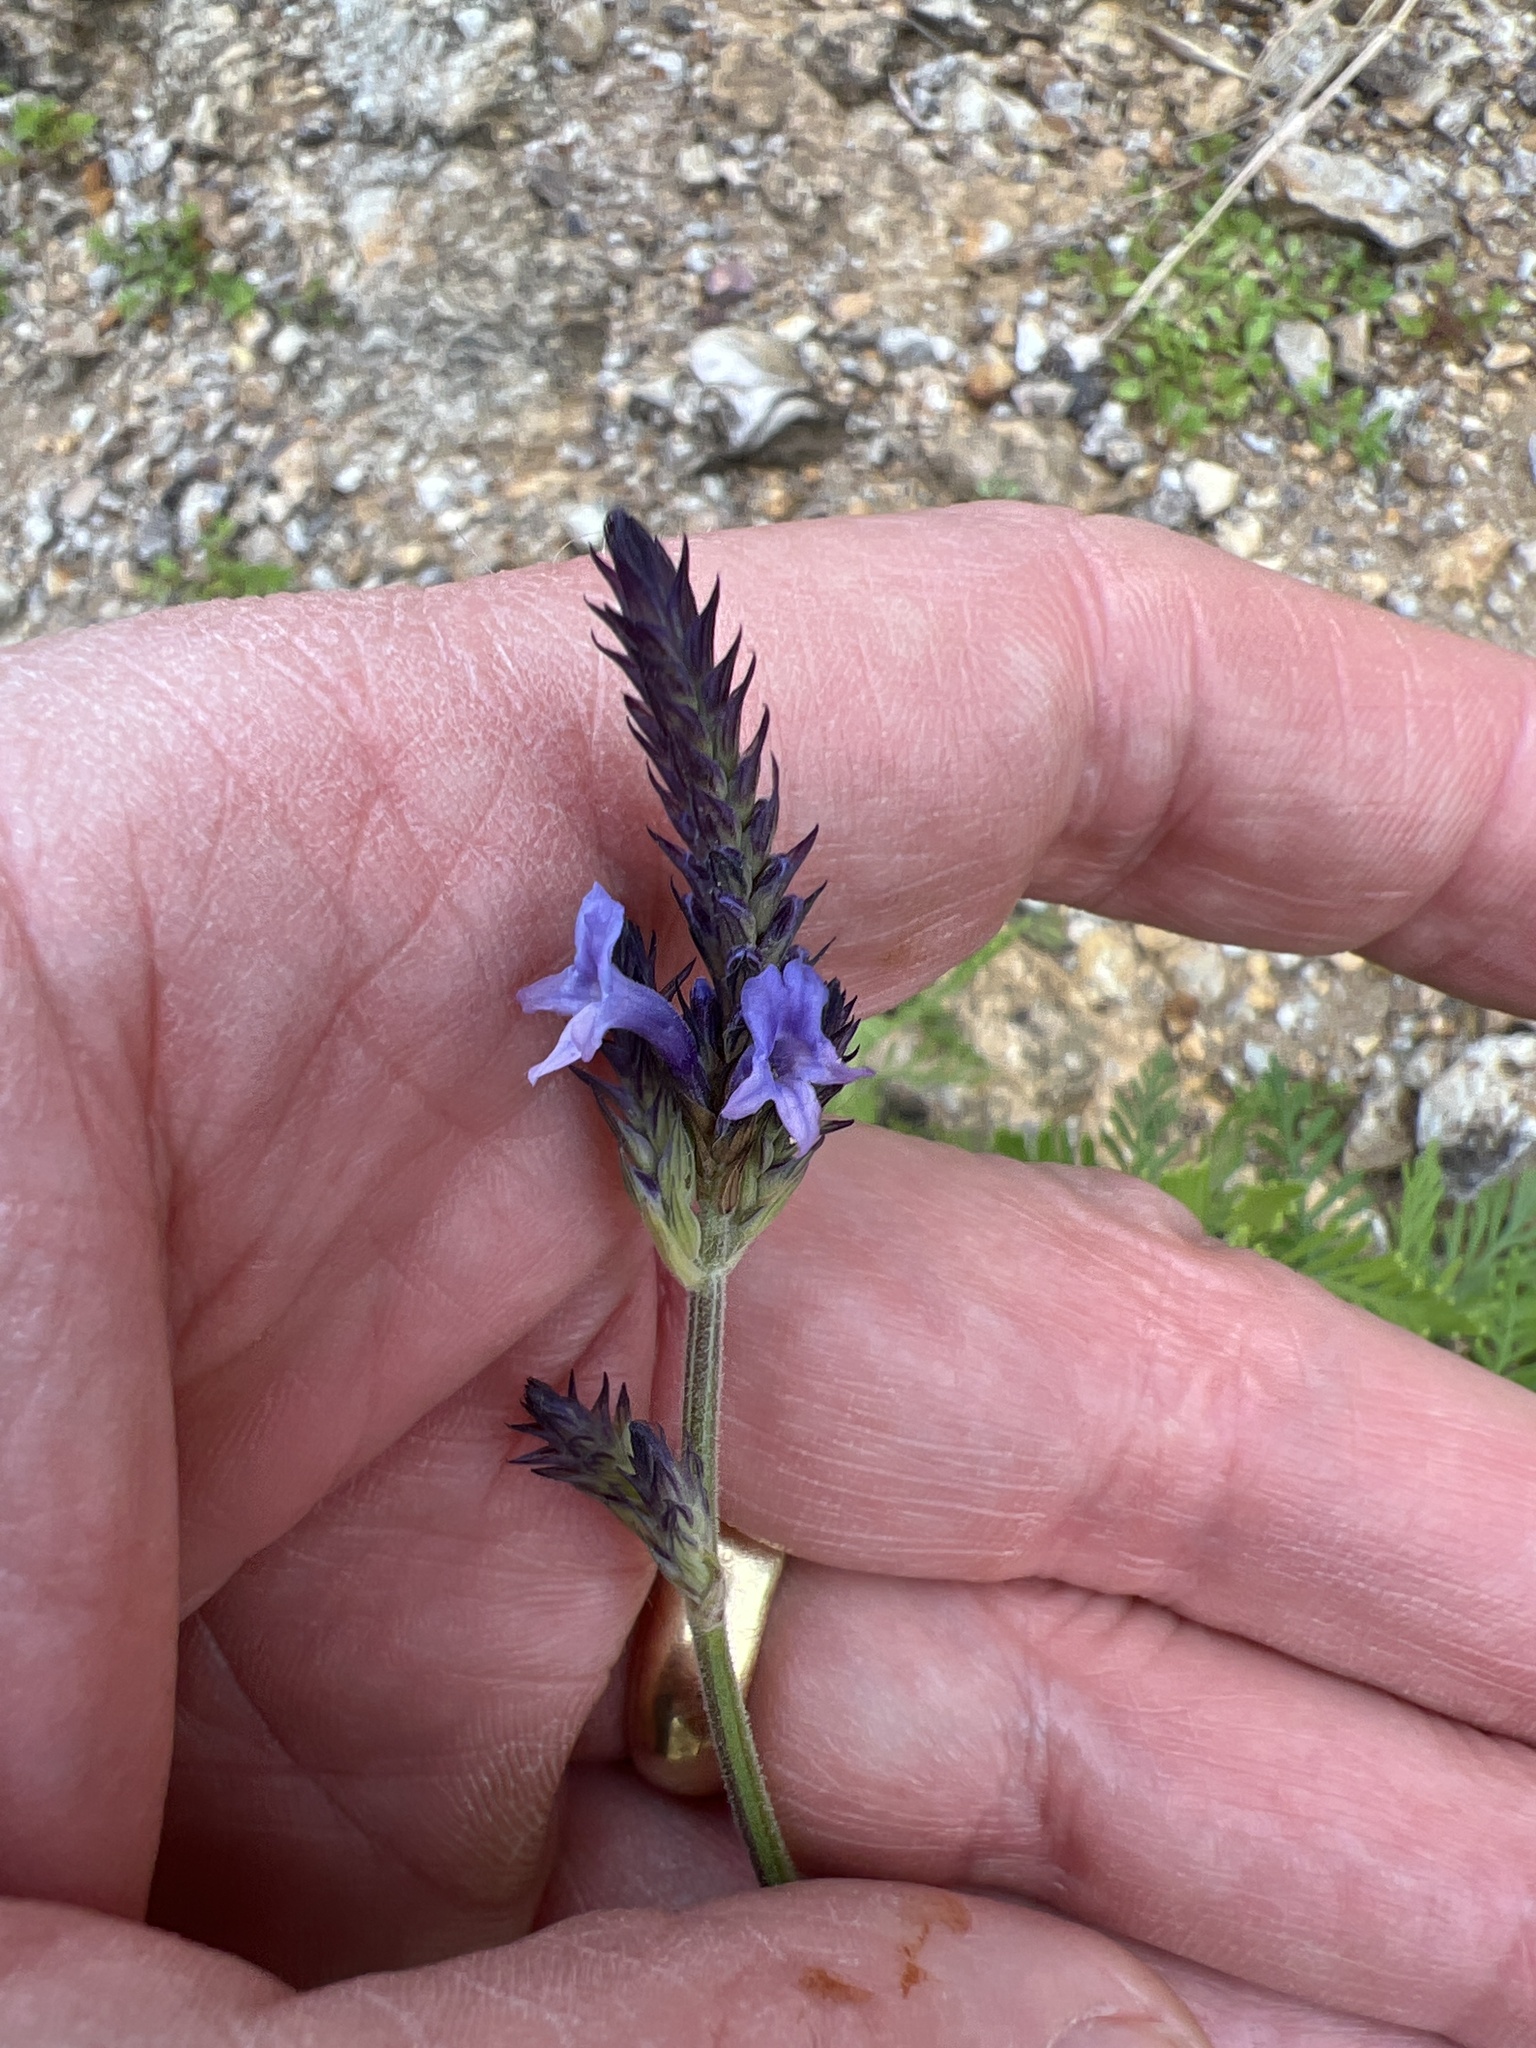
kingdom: Plantae
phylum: Tracheophyta
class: Magnoliopsida
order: Lamiales
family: Lamiaceae
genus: Lavandula
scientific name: Lavandula canariensis
